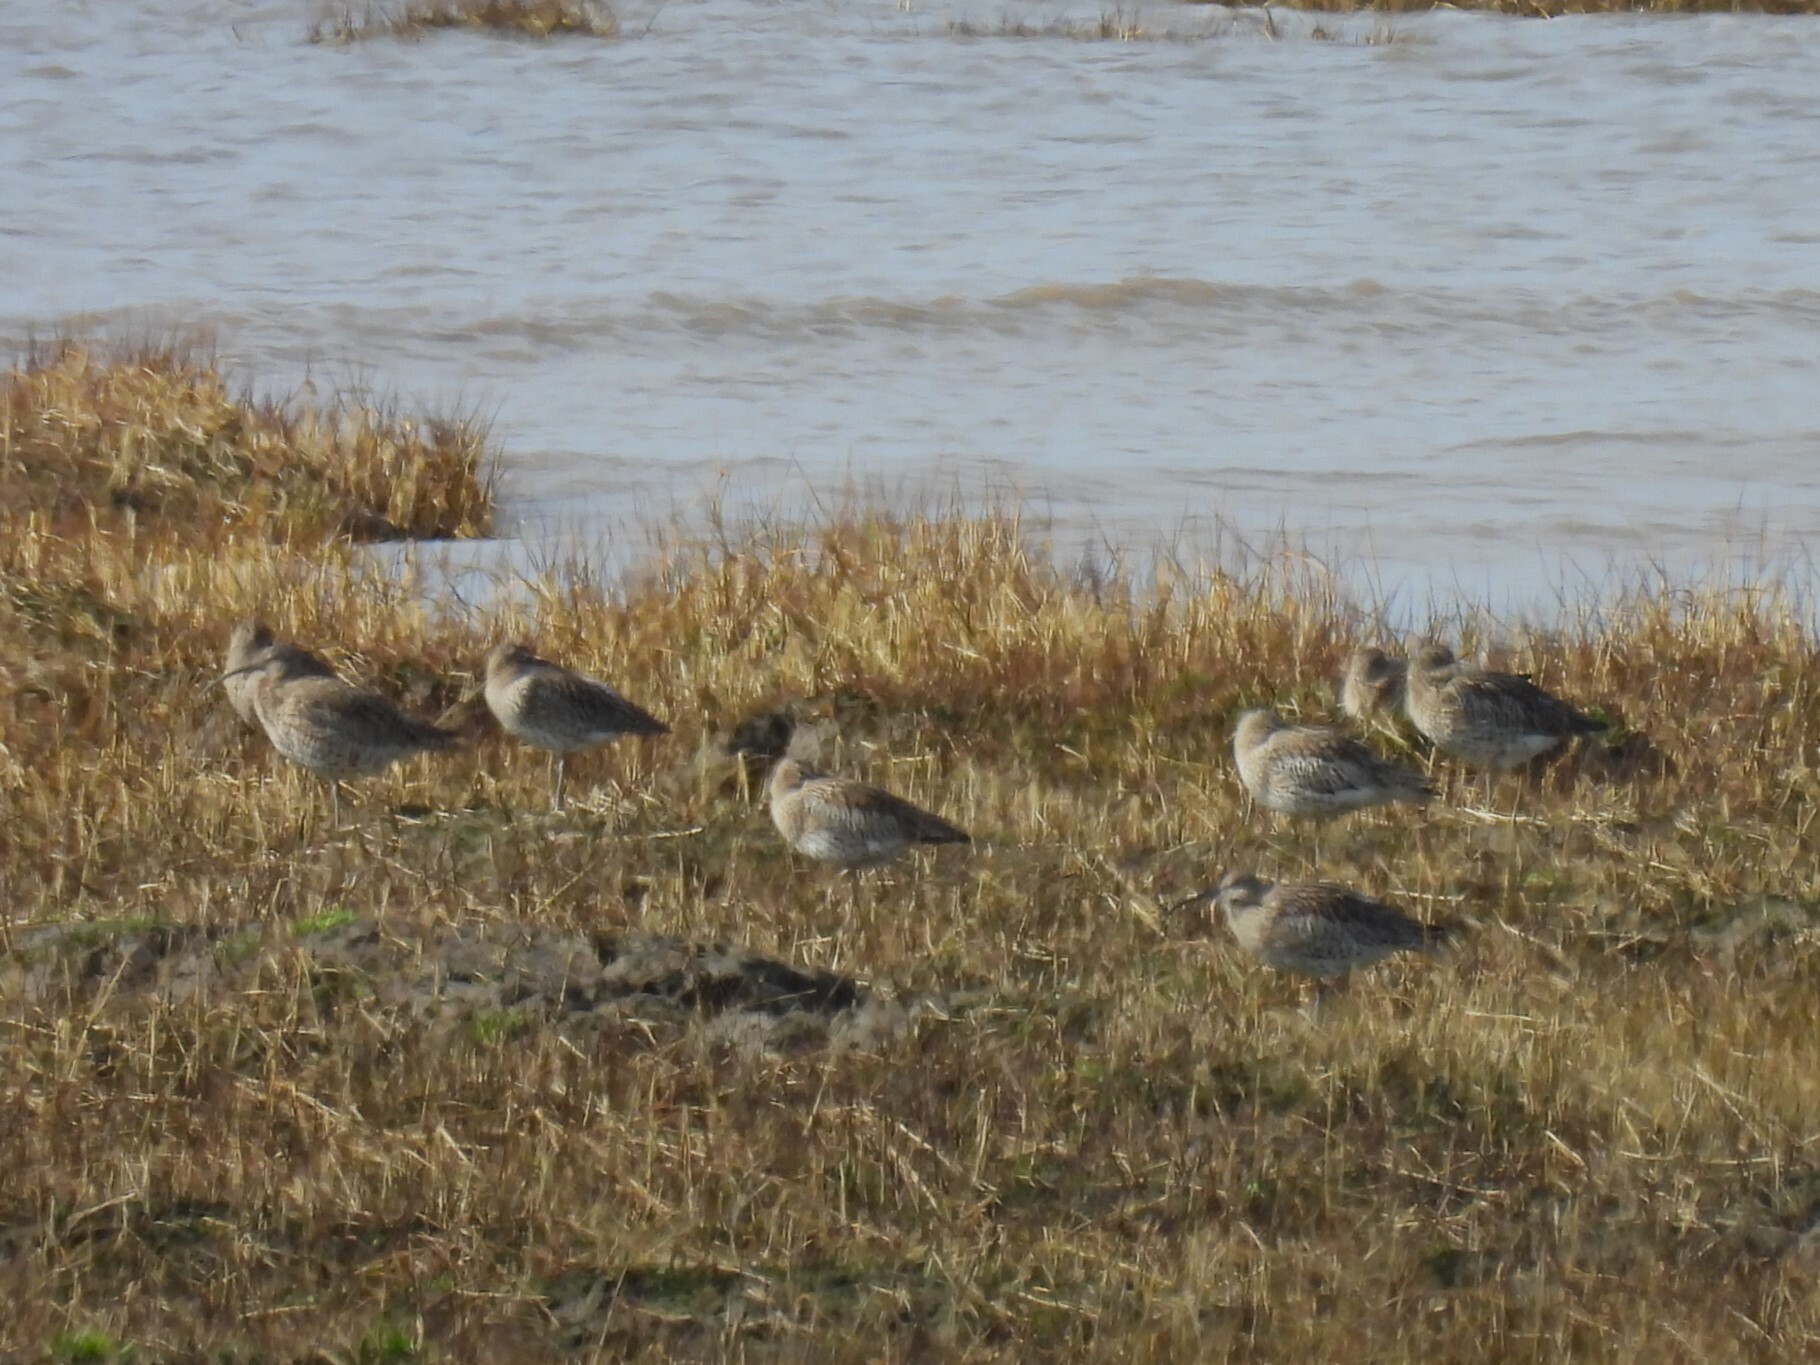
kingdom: Animalia
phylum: Chordata
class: Aves
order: Charadriiformes
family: Scolopacidae
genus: Numenius
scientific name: Numenius arquata
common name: Eurasian curlew
